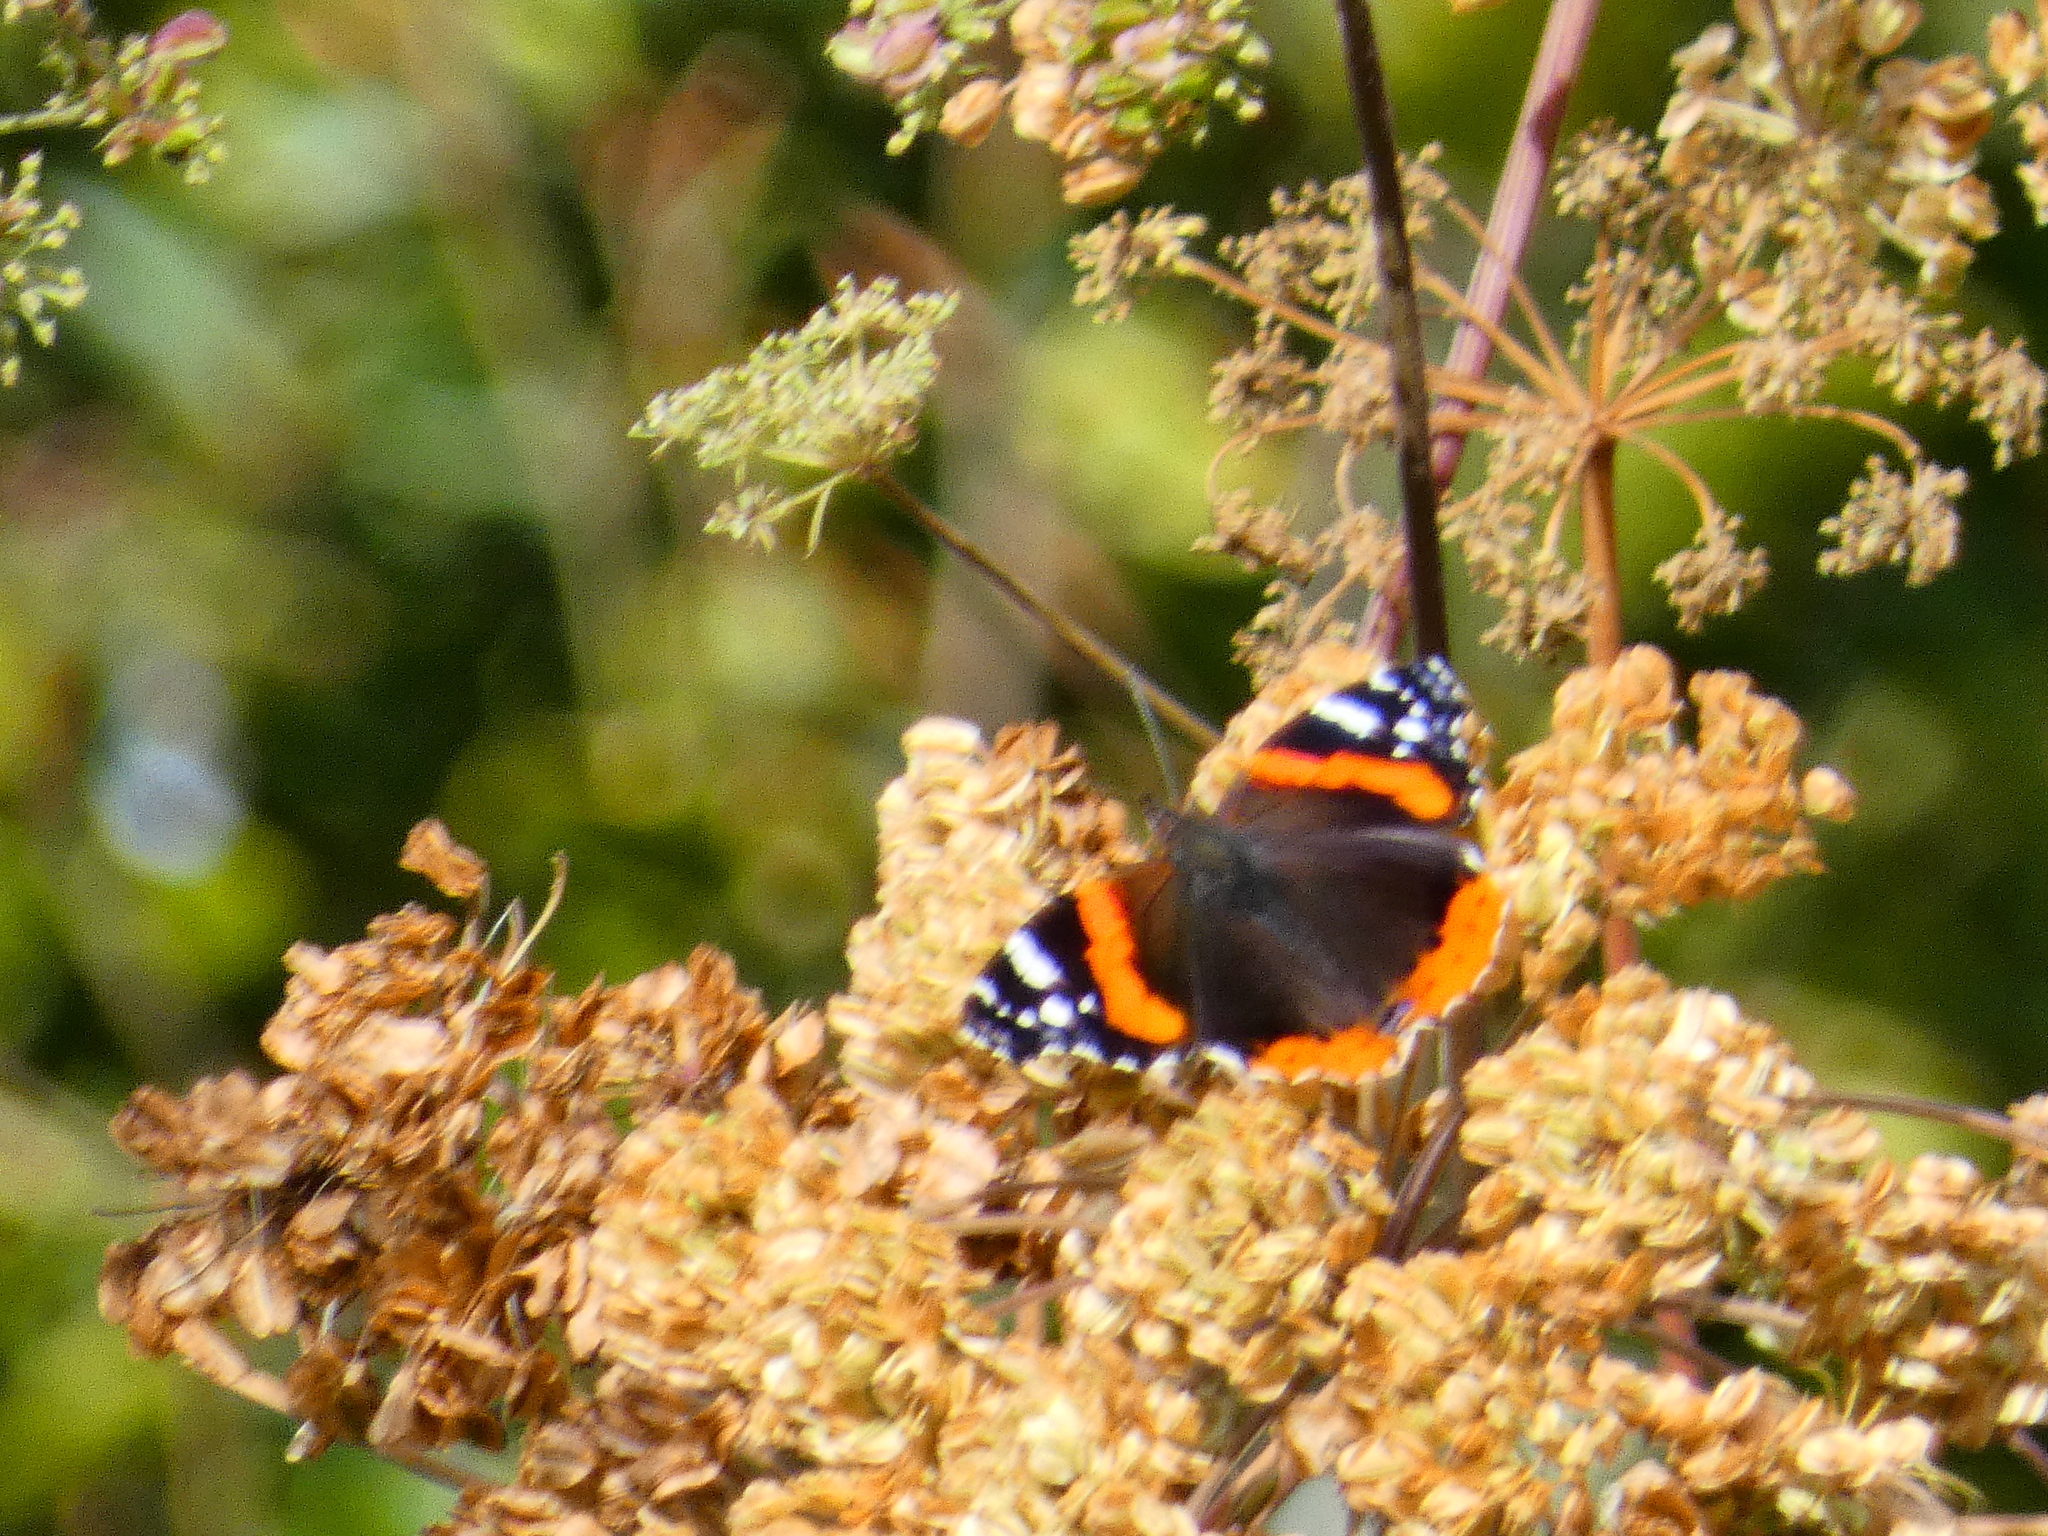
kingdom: Animalia
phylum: Arthropoda
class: Insecta
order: Lepidoptera
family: Nymphalidae
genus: Vanessa
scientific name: Vanessa atalanta
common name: Red admiral
